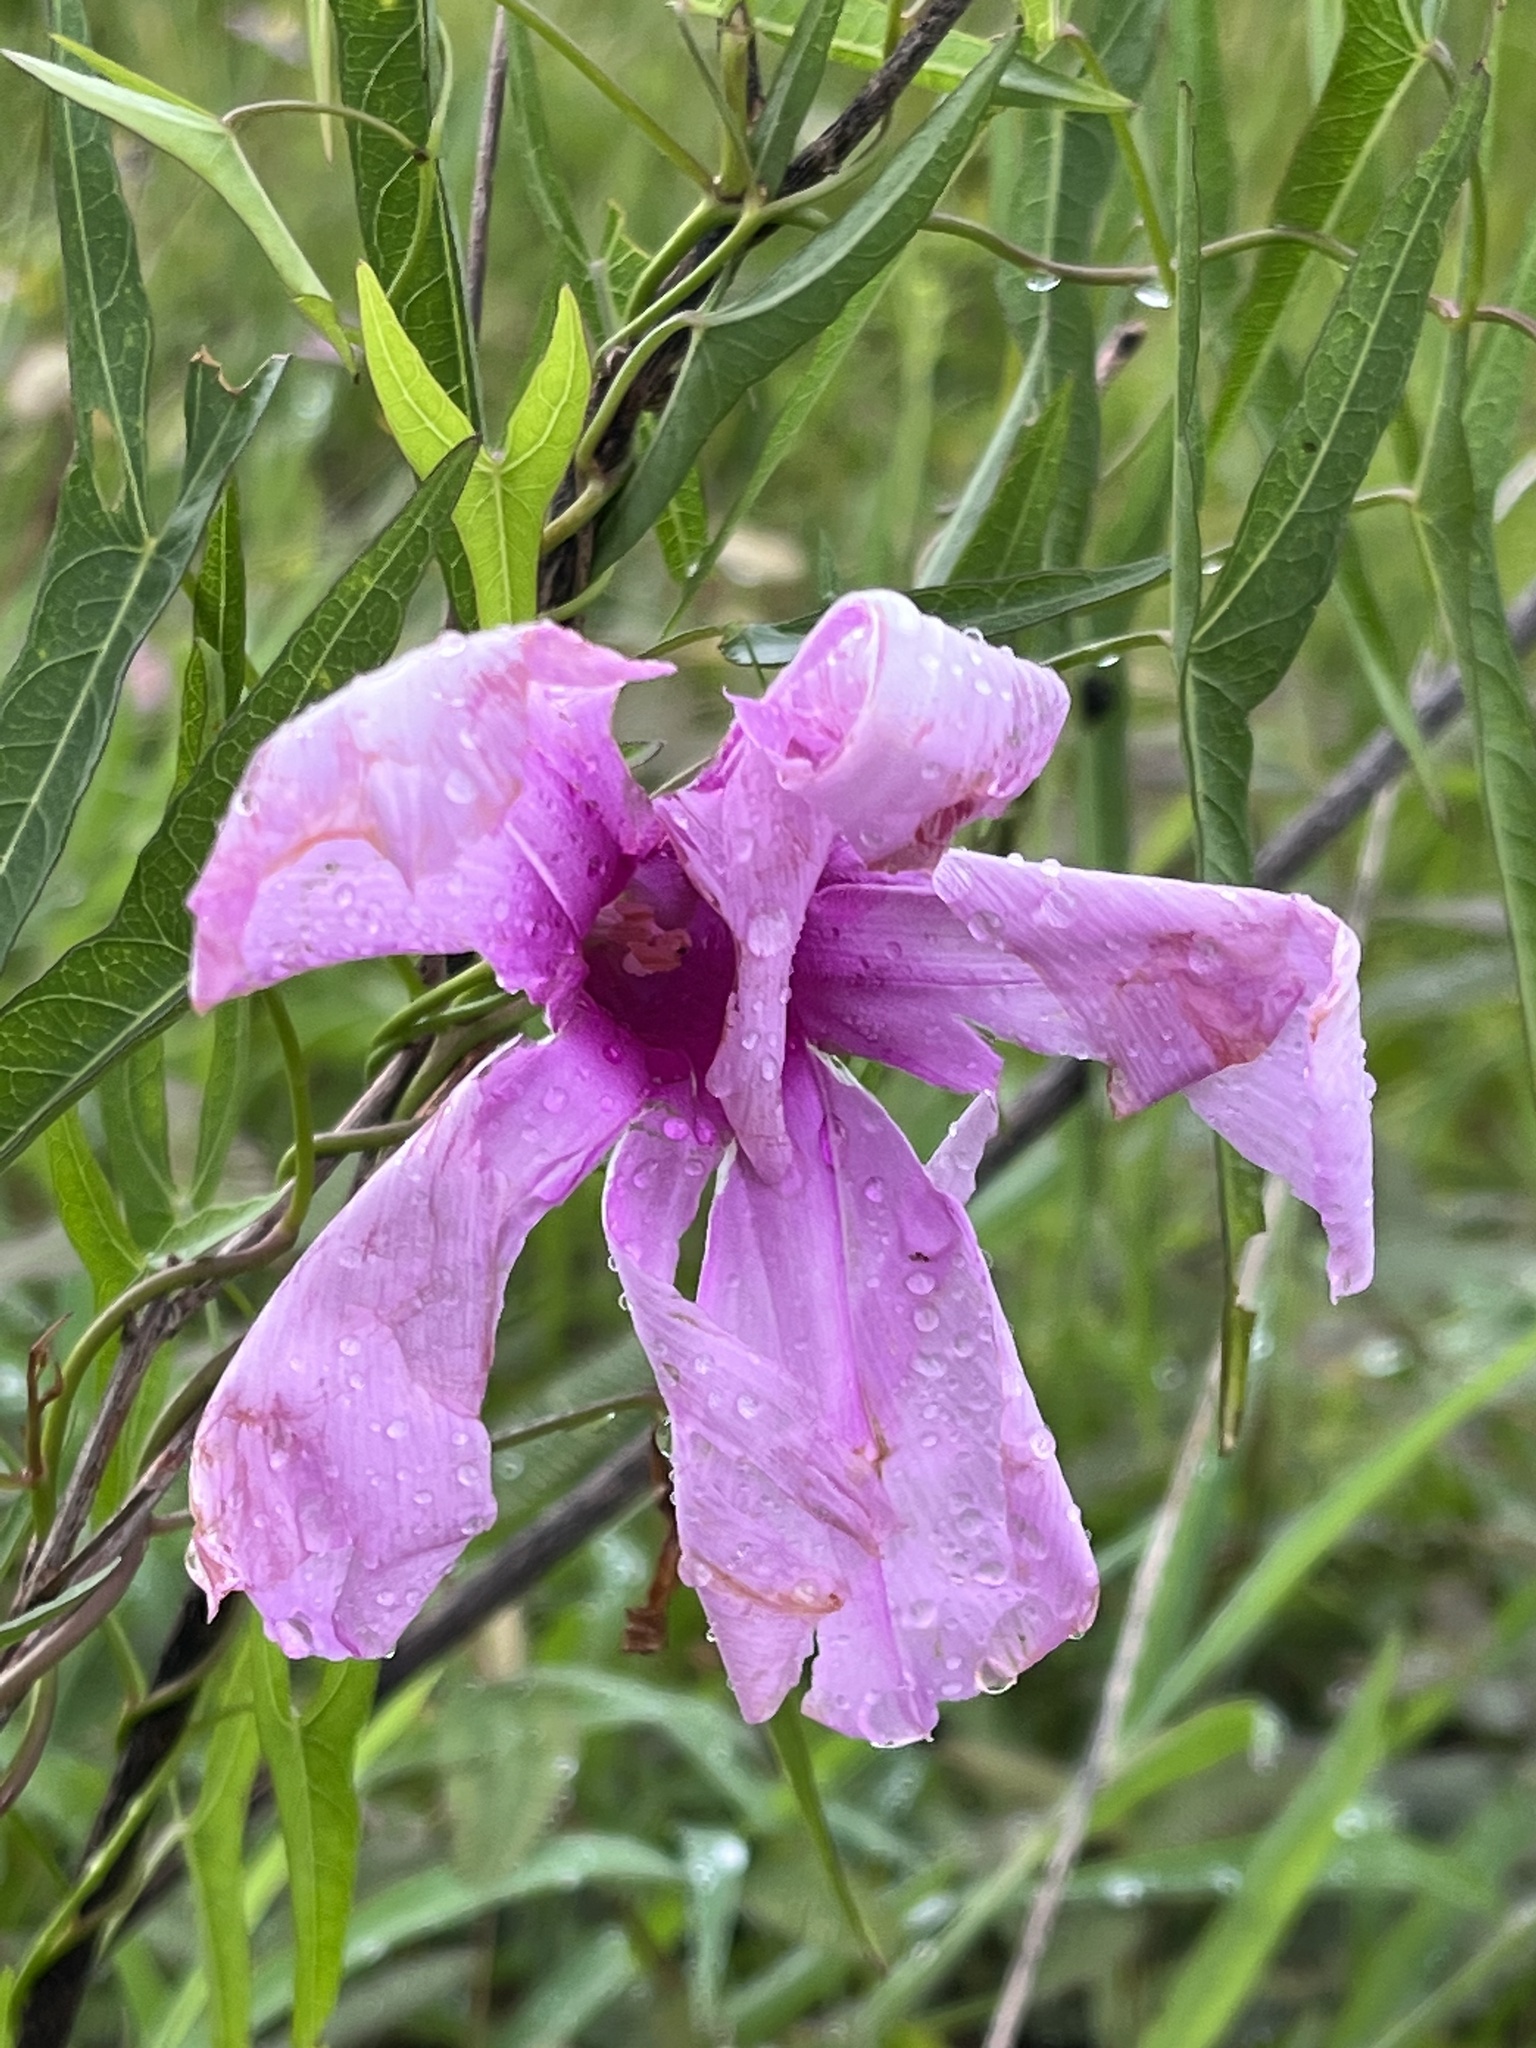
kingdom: Plantae
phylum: Tracheophyta
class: Magnoliopsida
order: Solanales
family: Convolvulaceae
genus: Ipomoea
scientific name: Ipomoea sagittata
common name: Saltmarsh morning glory
